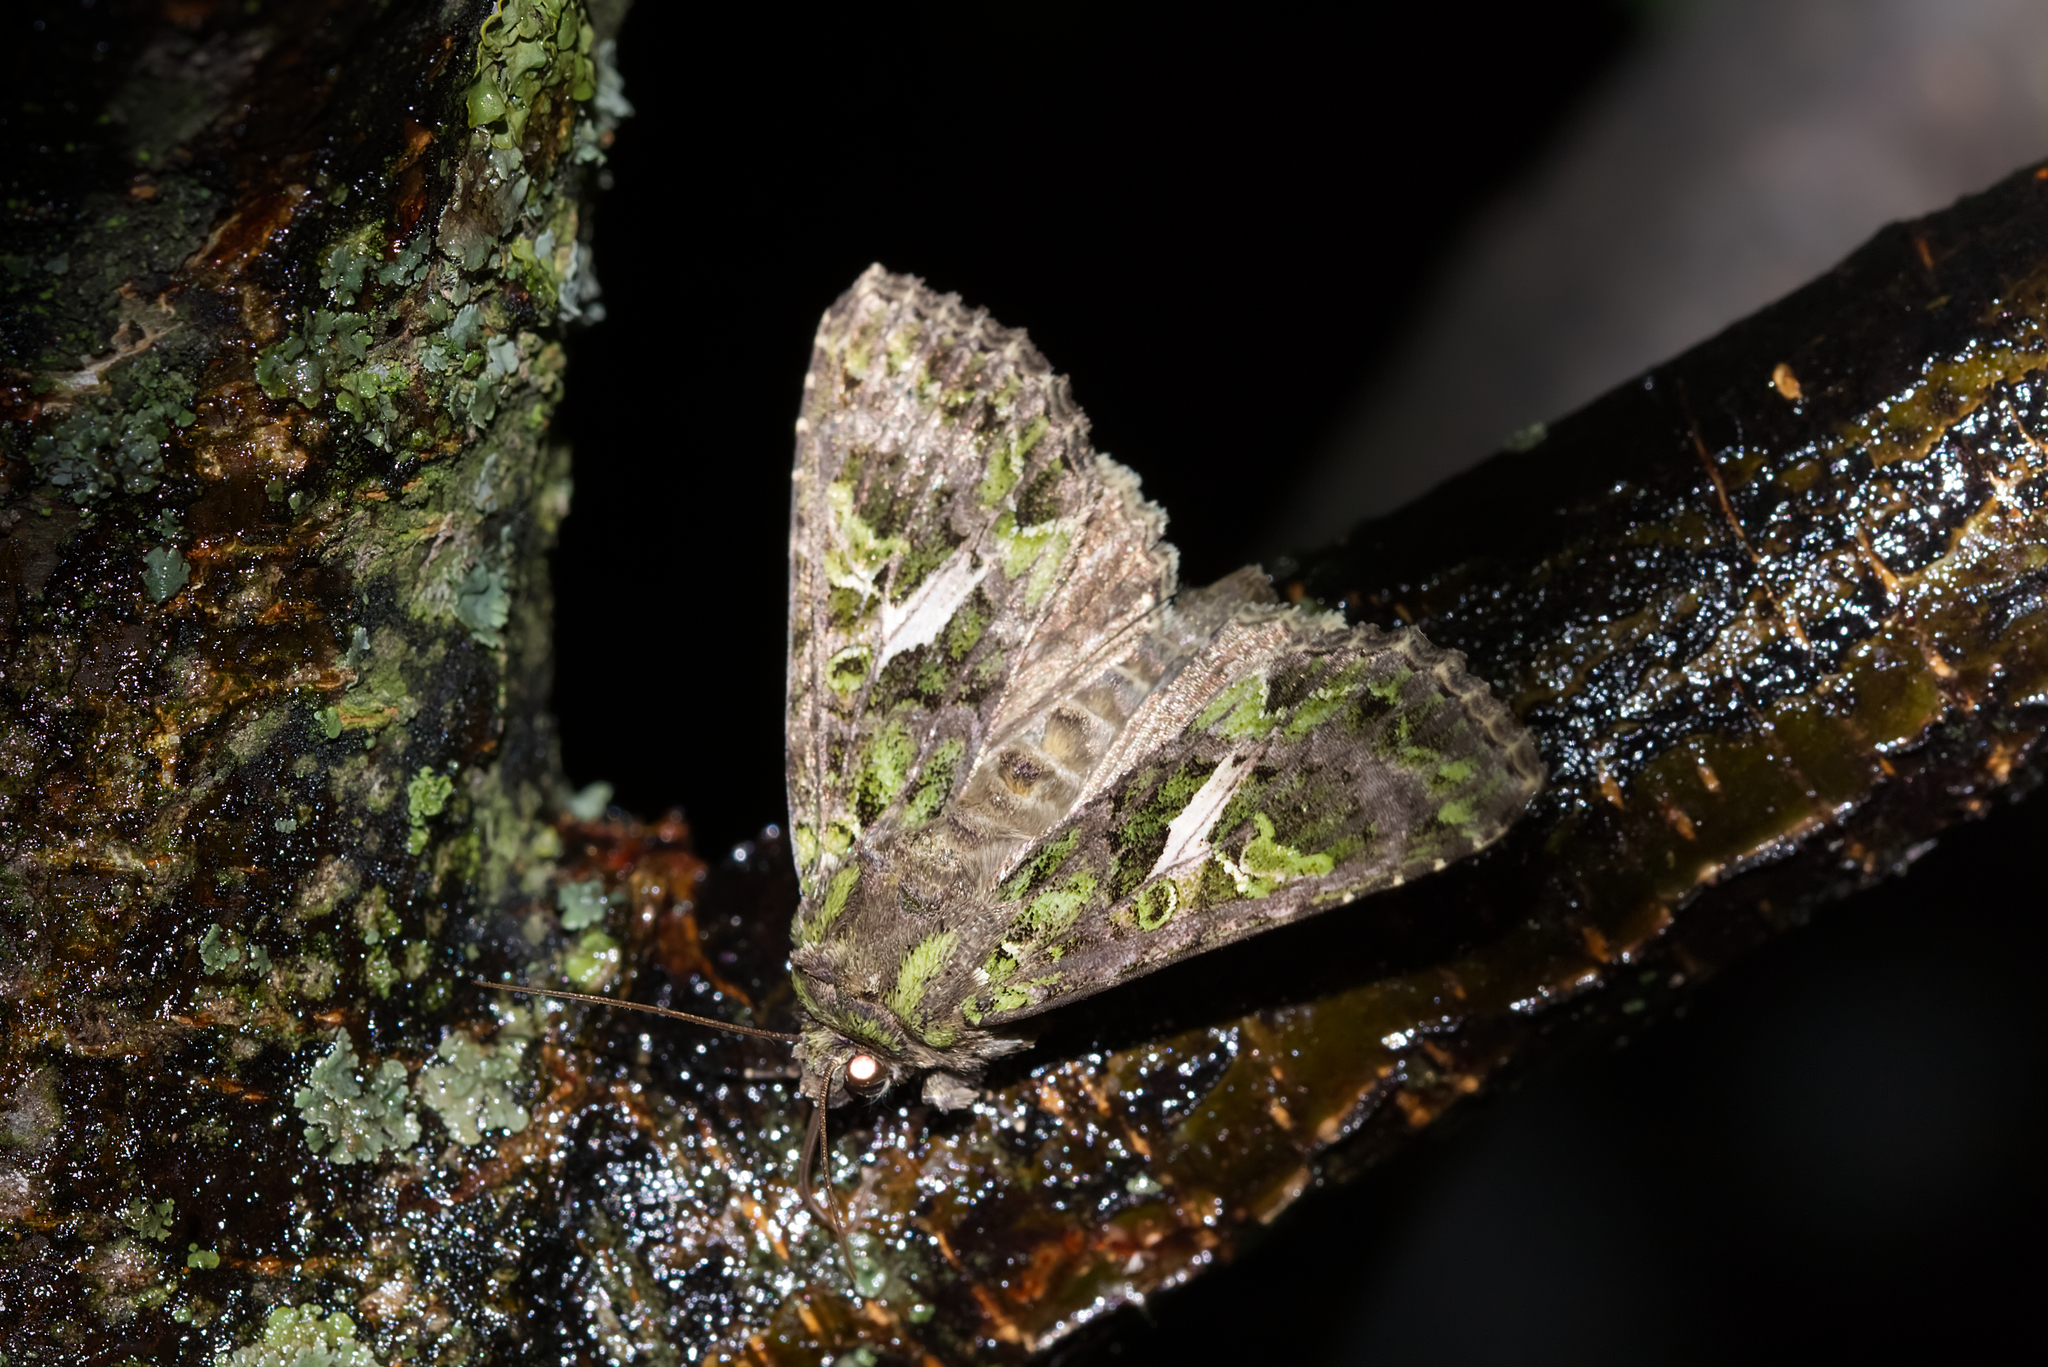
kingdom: Animalia
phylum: Arthropoda
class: Insecta
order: Lepidoptera
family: Noctuidae
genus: Trachea
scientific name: Trachea atriplicis
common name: Orache moth
